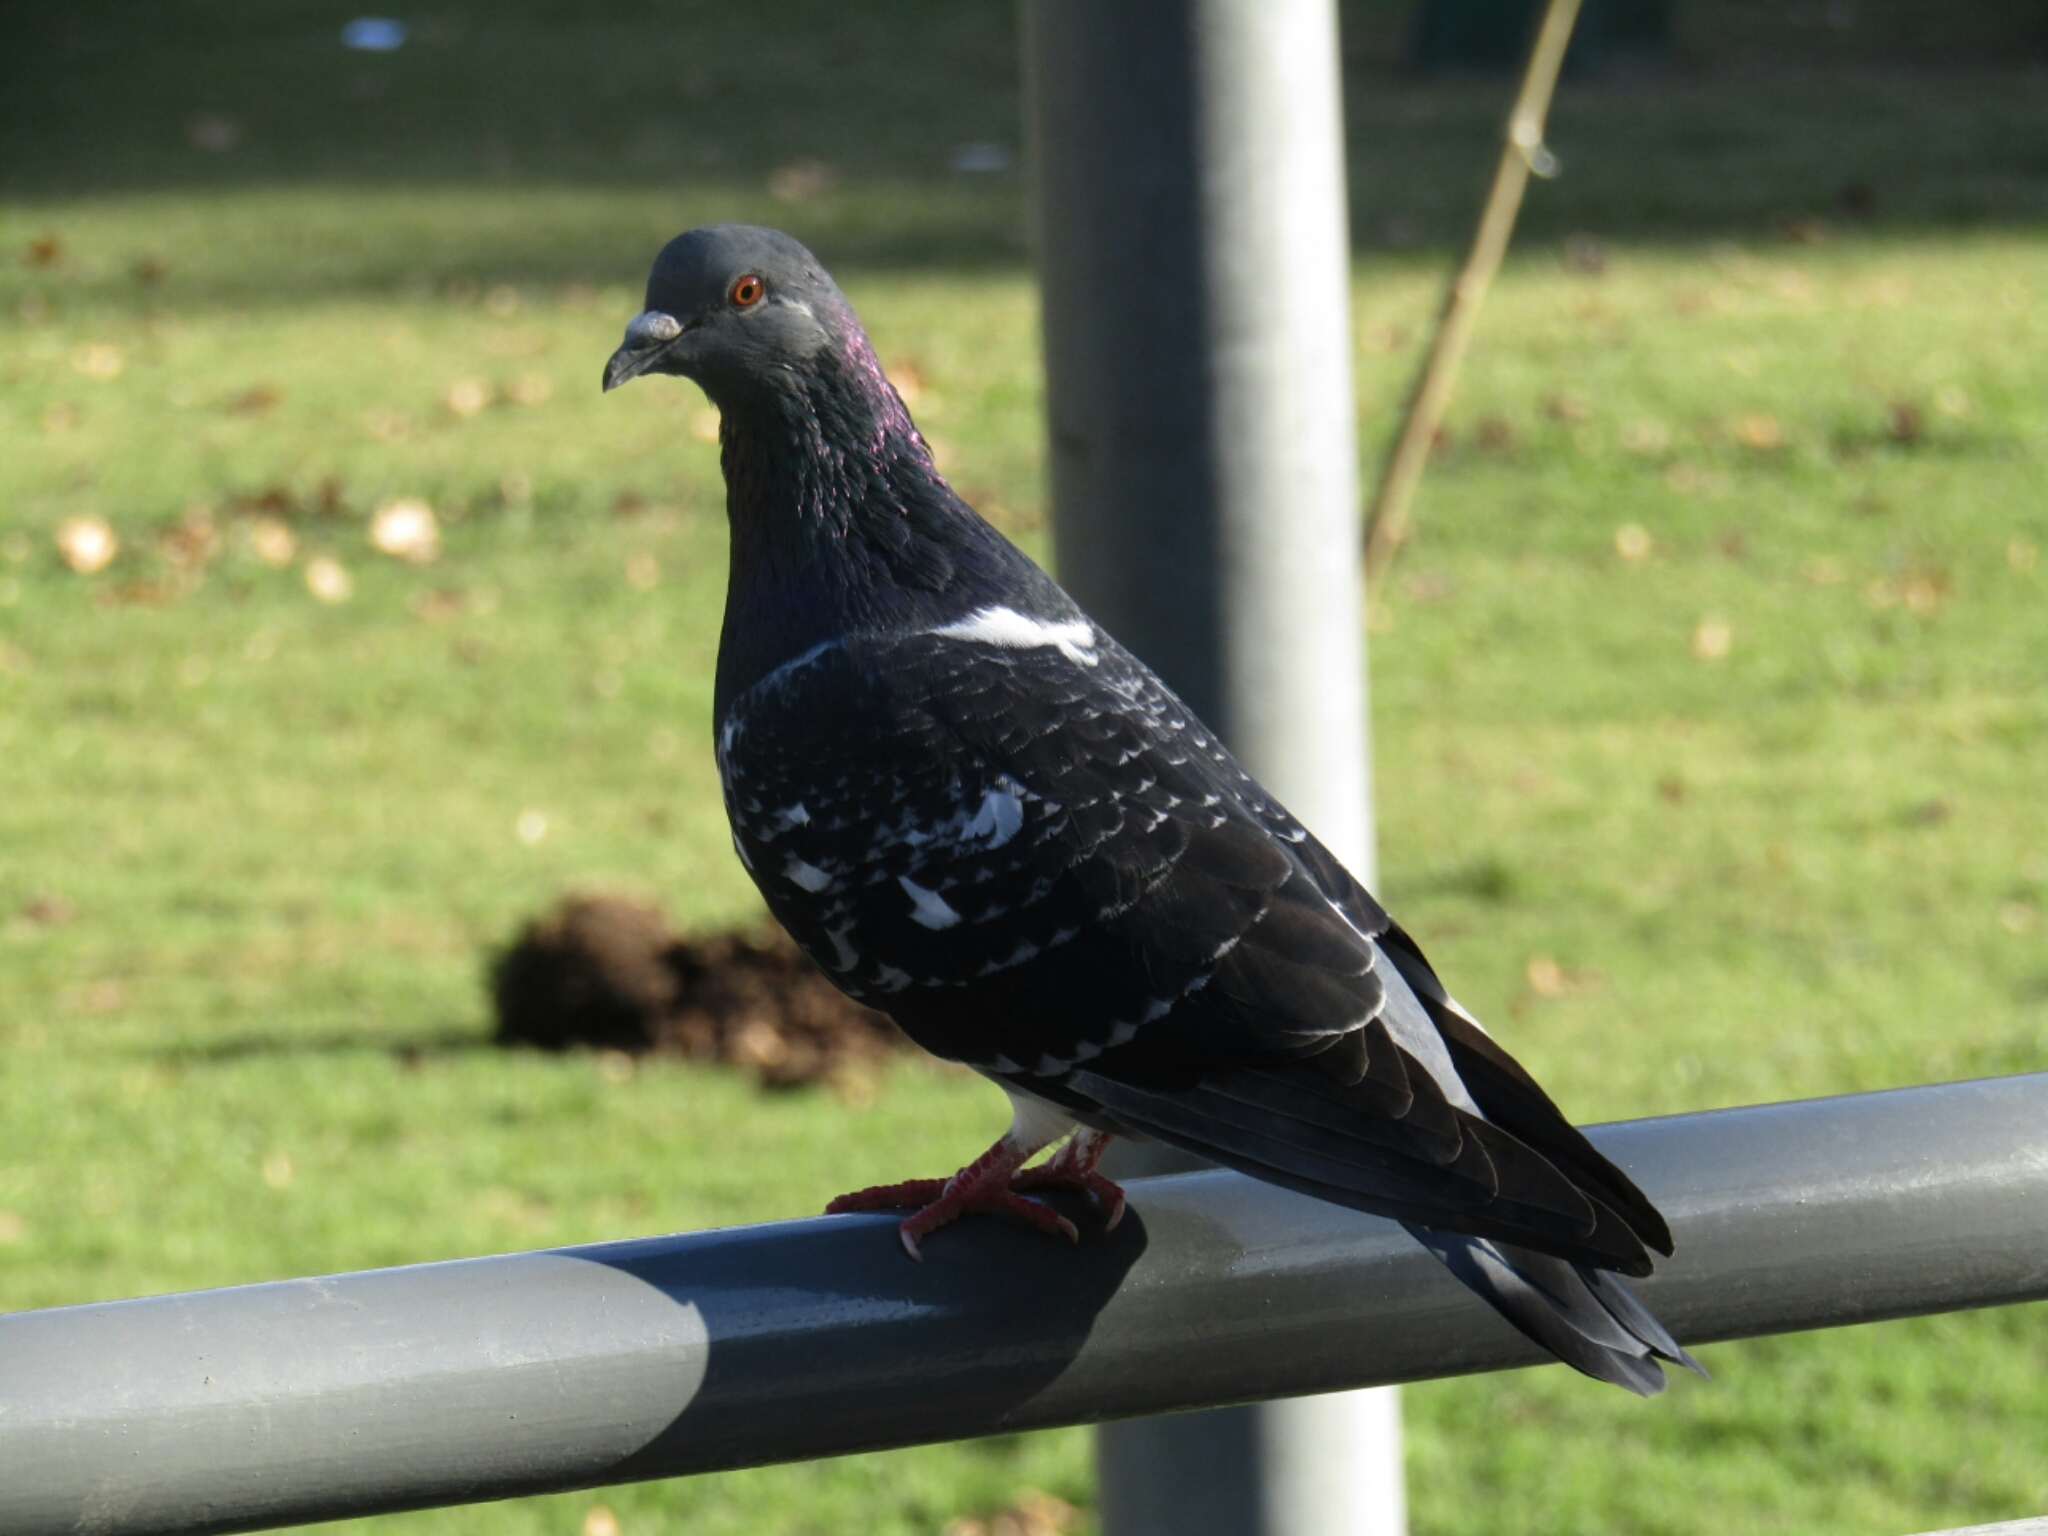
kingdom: Animalia
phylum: Chordata
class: Aves
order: Columbiformes
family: Columbidae
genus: Columba
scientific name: Columba livia
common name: Rock pigeon
